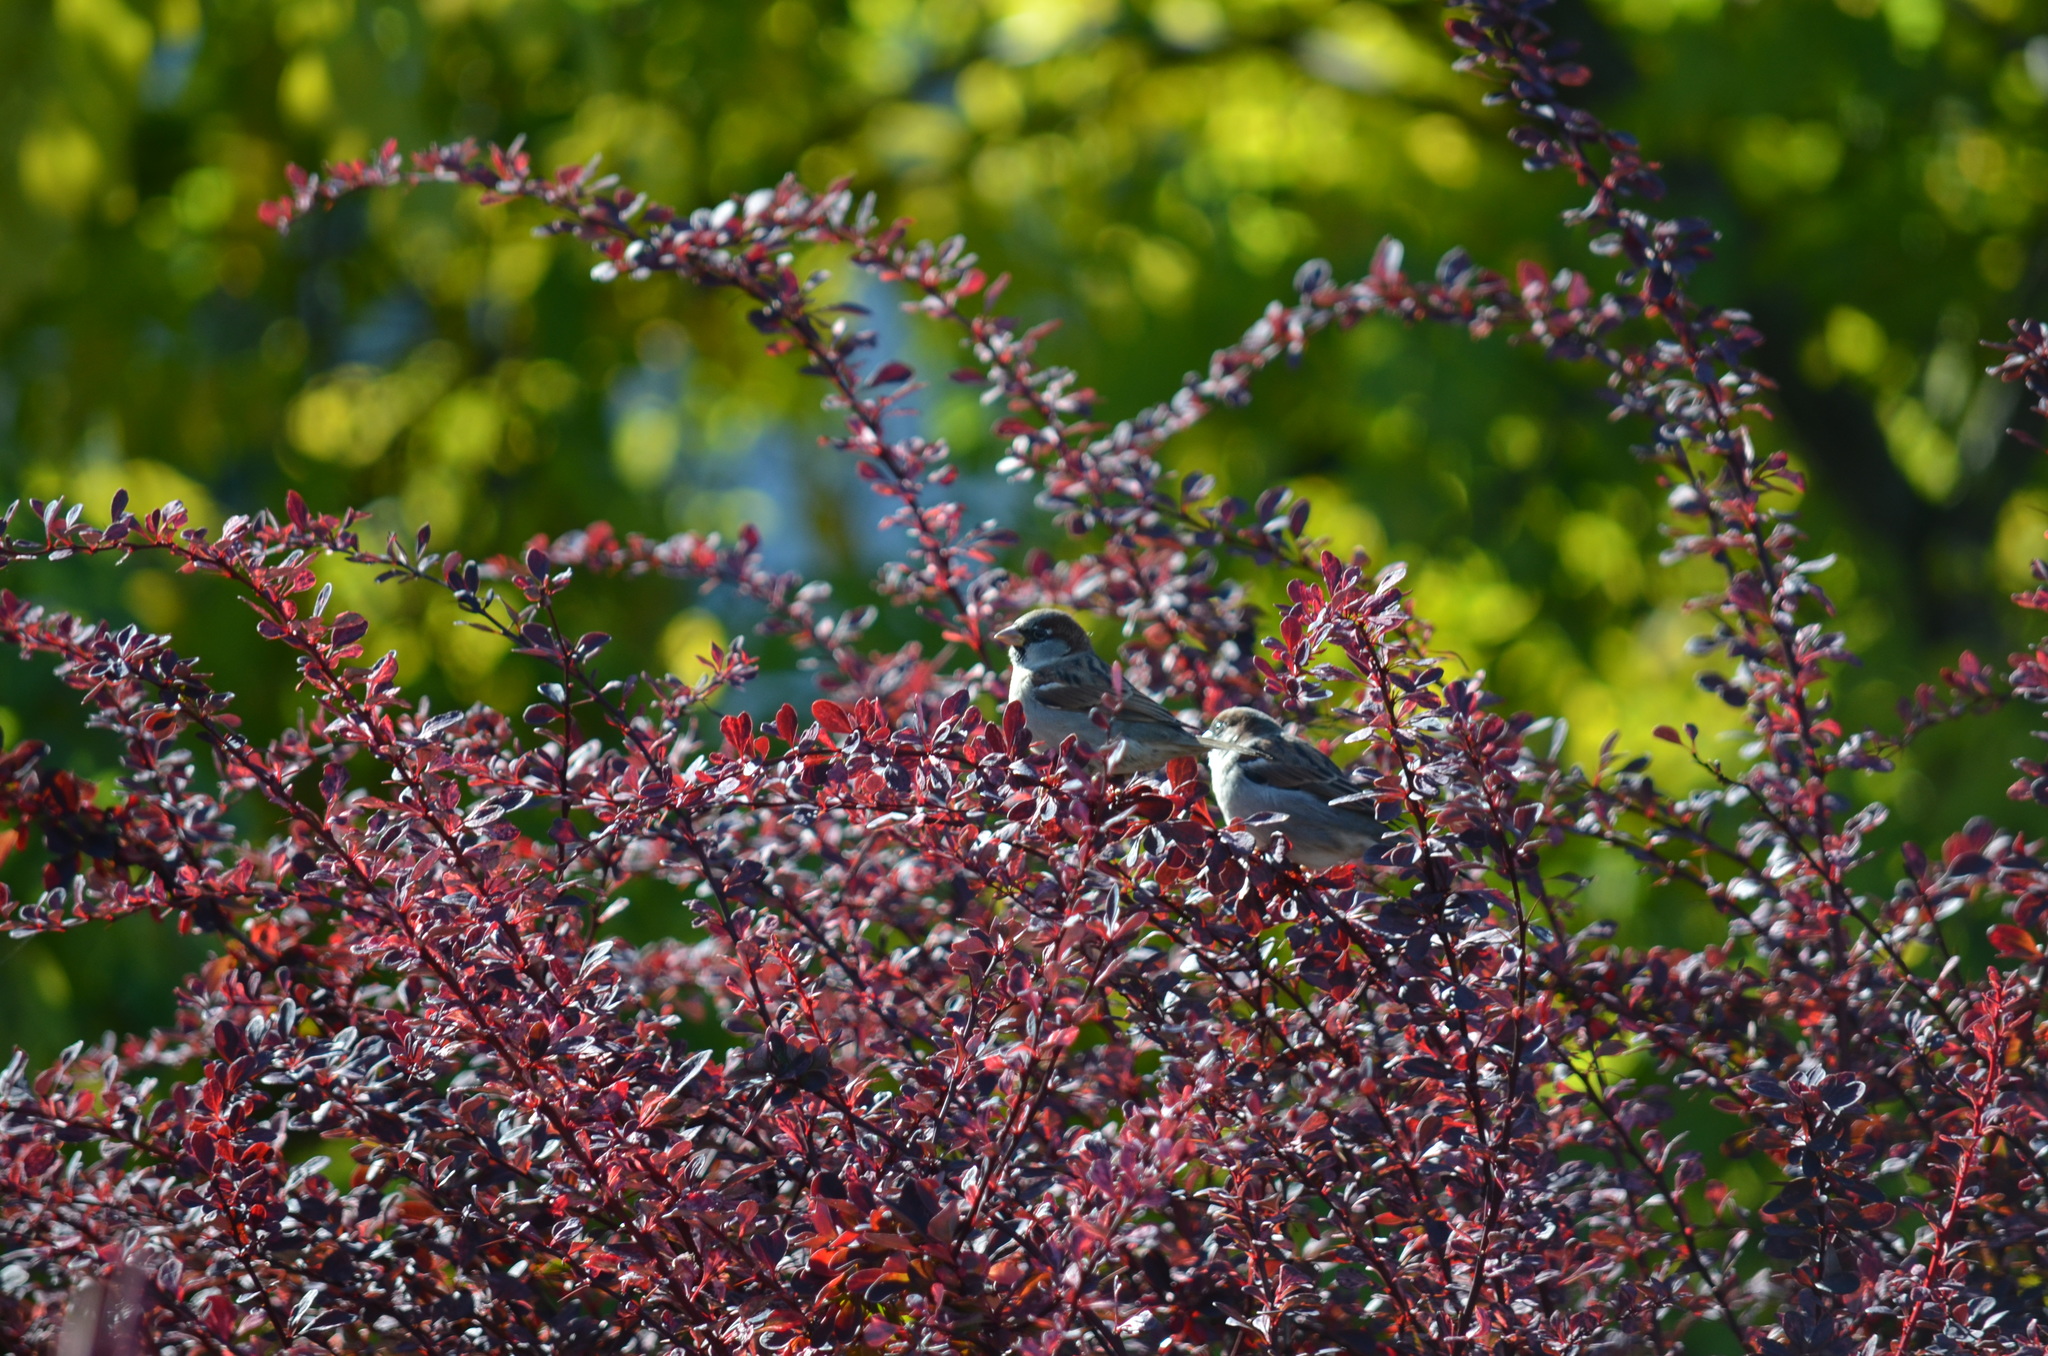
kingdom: Animalia
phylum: Chordata
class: Aves
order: Passeriformes
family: Passeridae
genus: Passer
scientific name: Passer domesticus
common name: House sparrow
